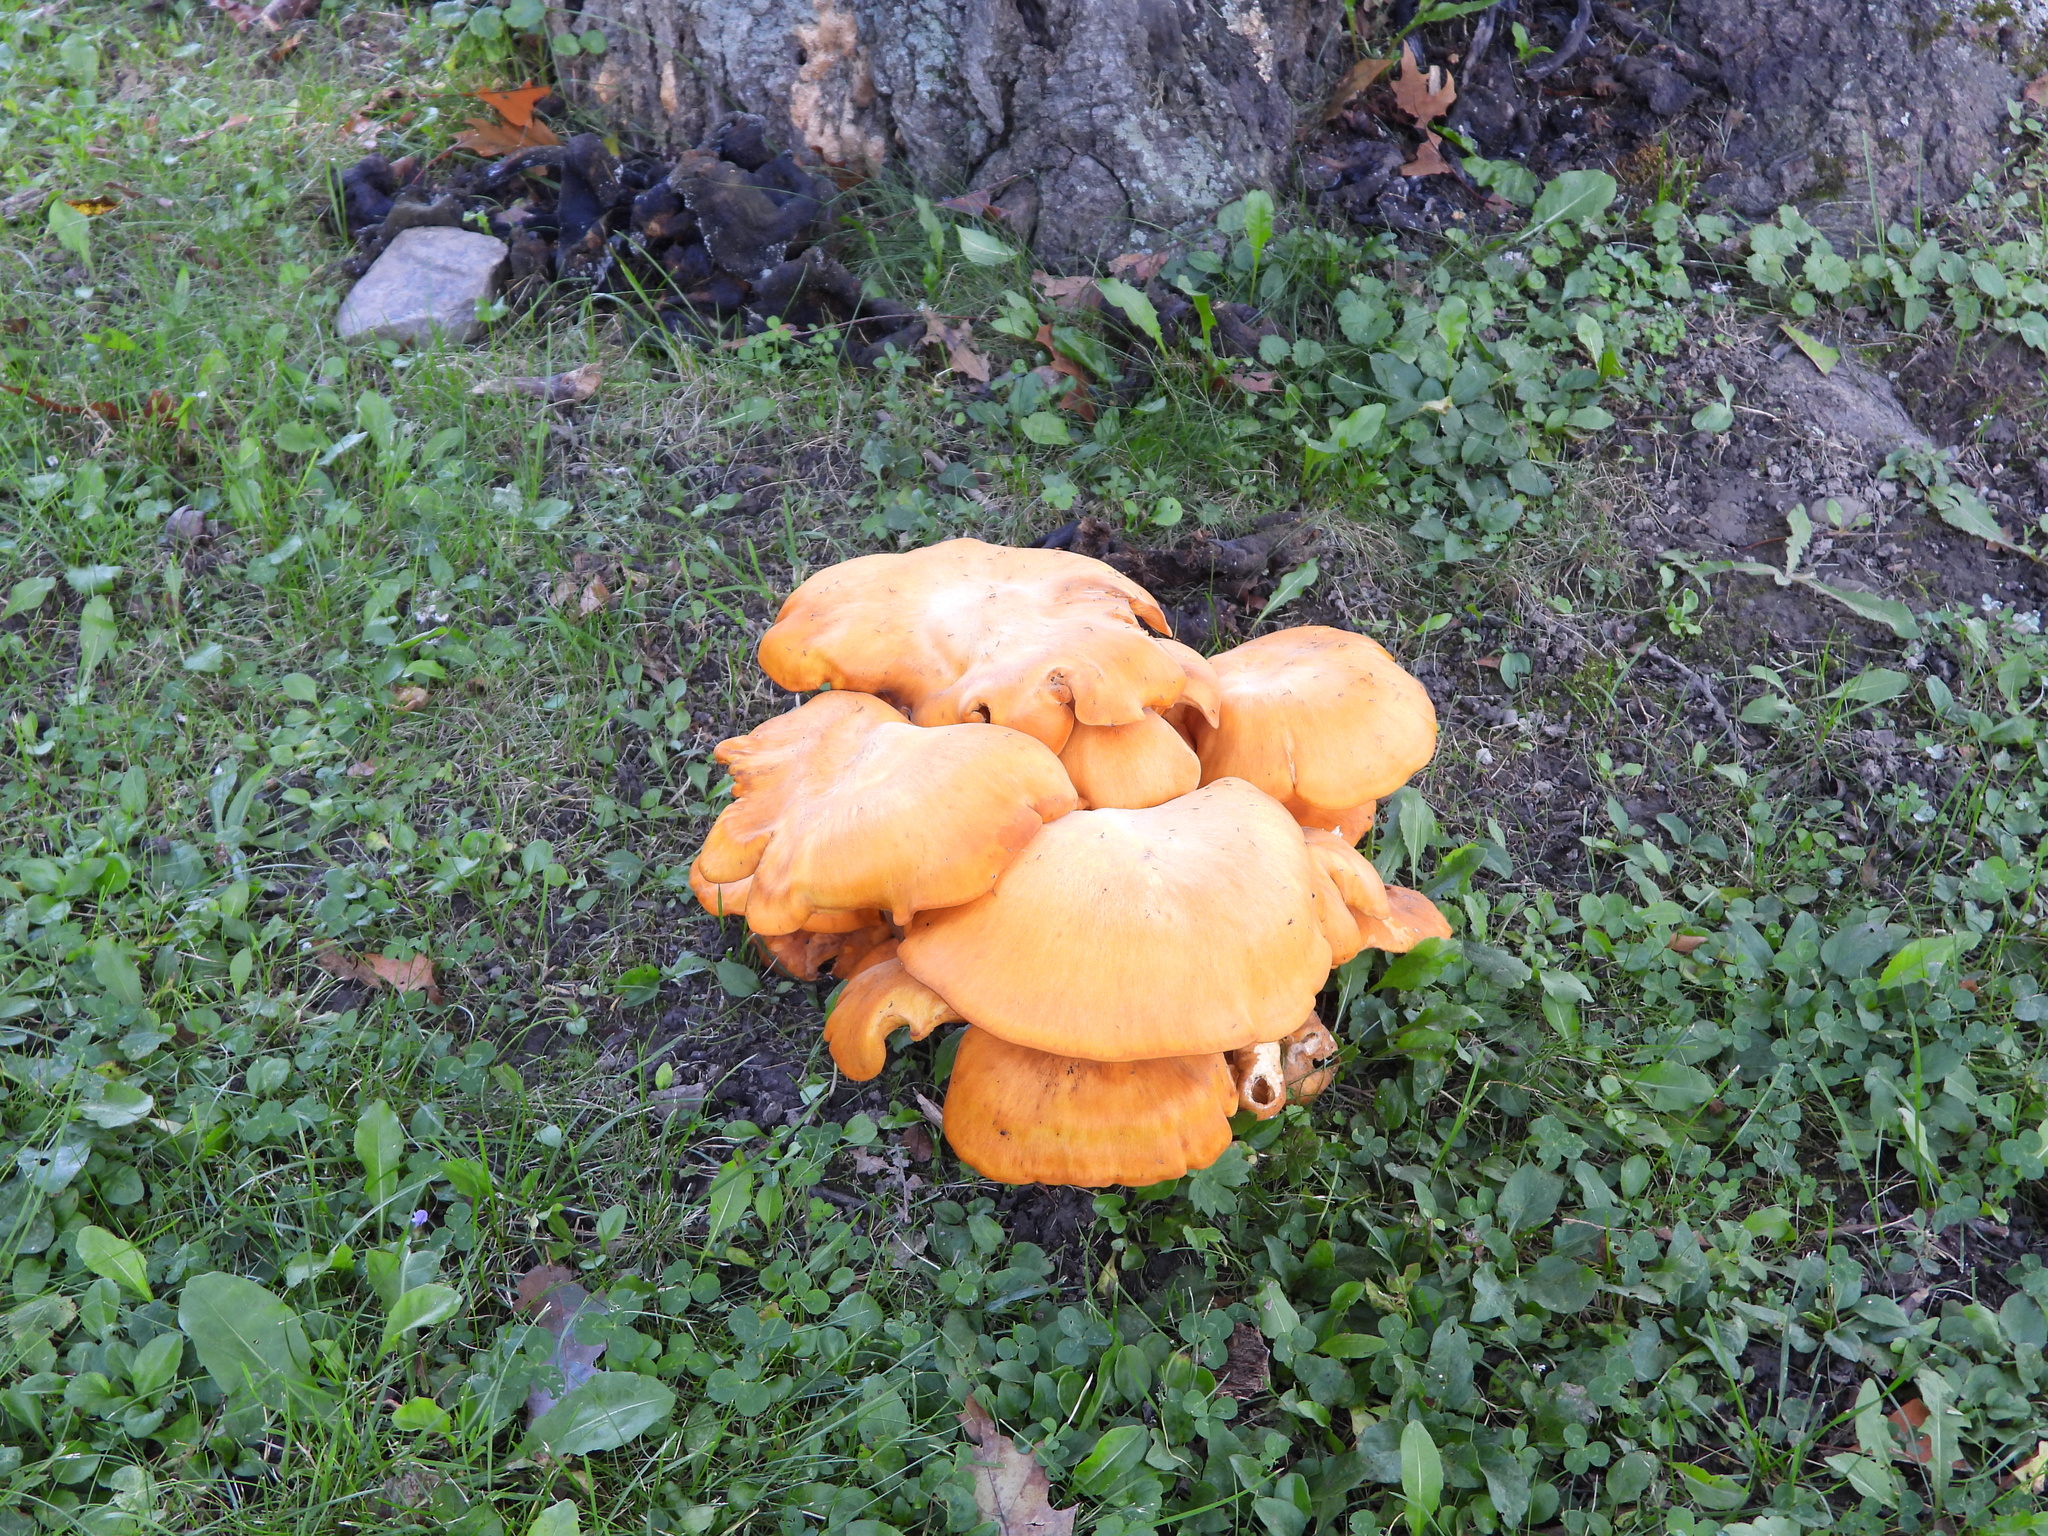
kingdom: Fungi
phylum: Basidiomycota
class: Agaricomycetes
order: Agaricales
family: Omphalotaceae
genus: Omphalotus
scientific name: Omphalotus illudens
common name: Jack o lantern
